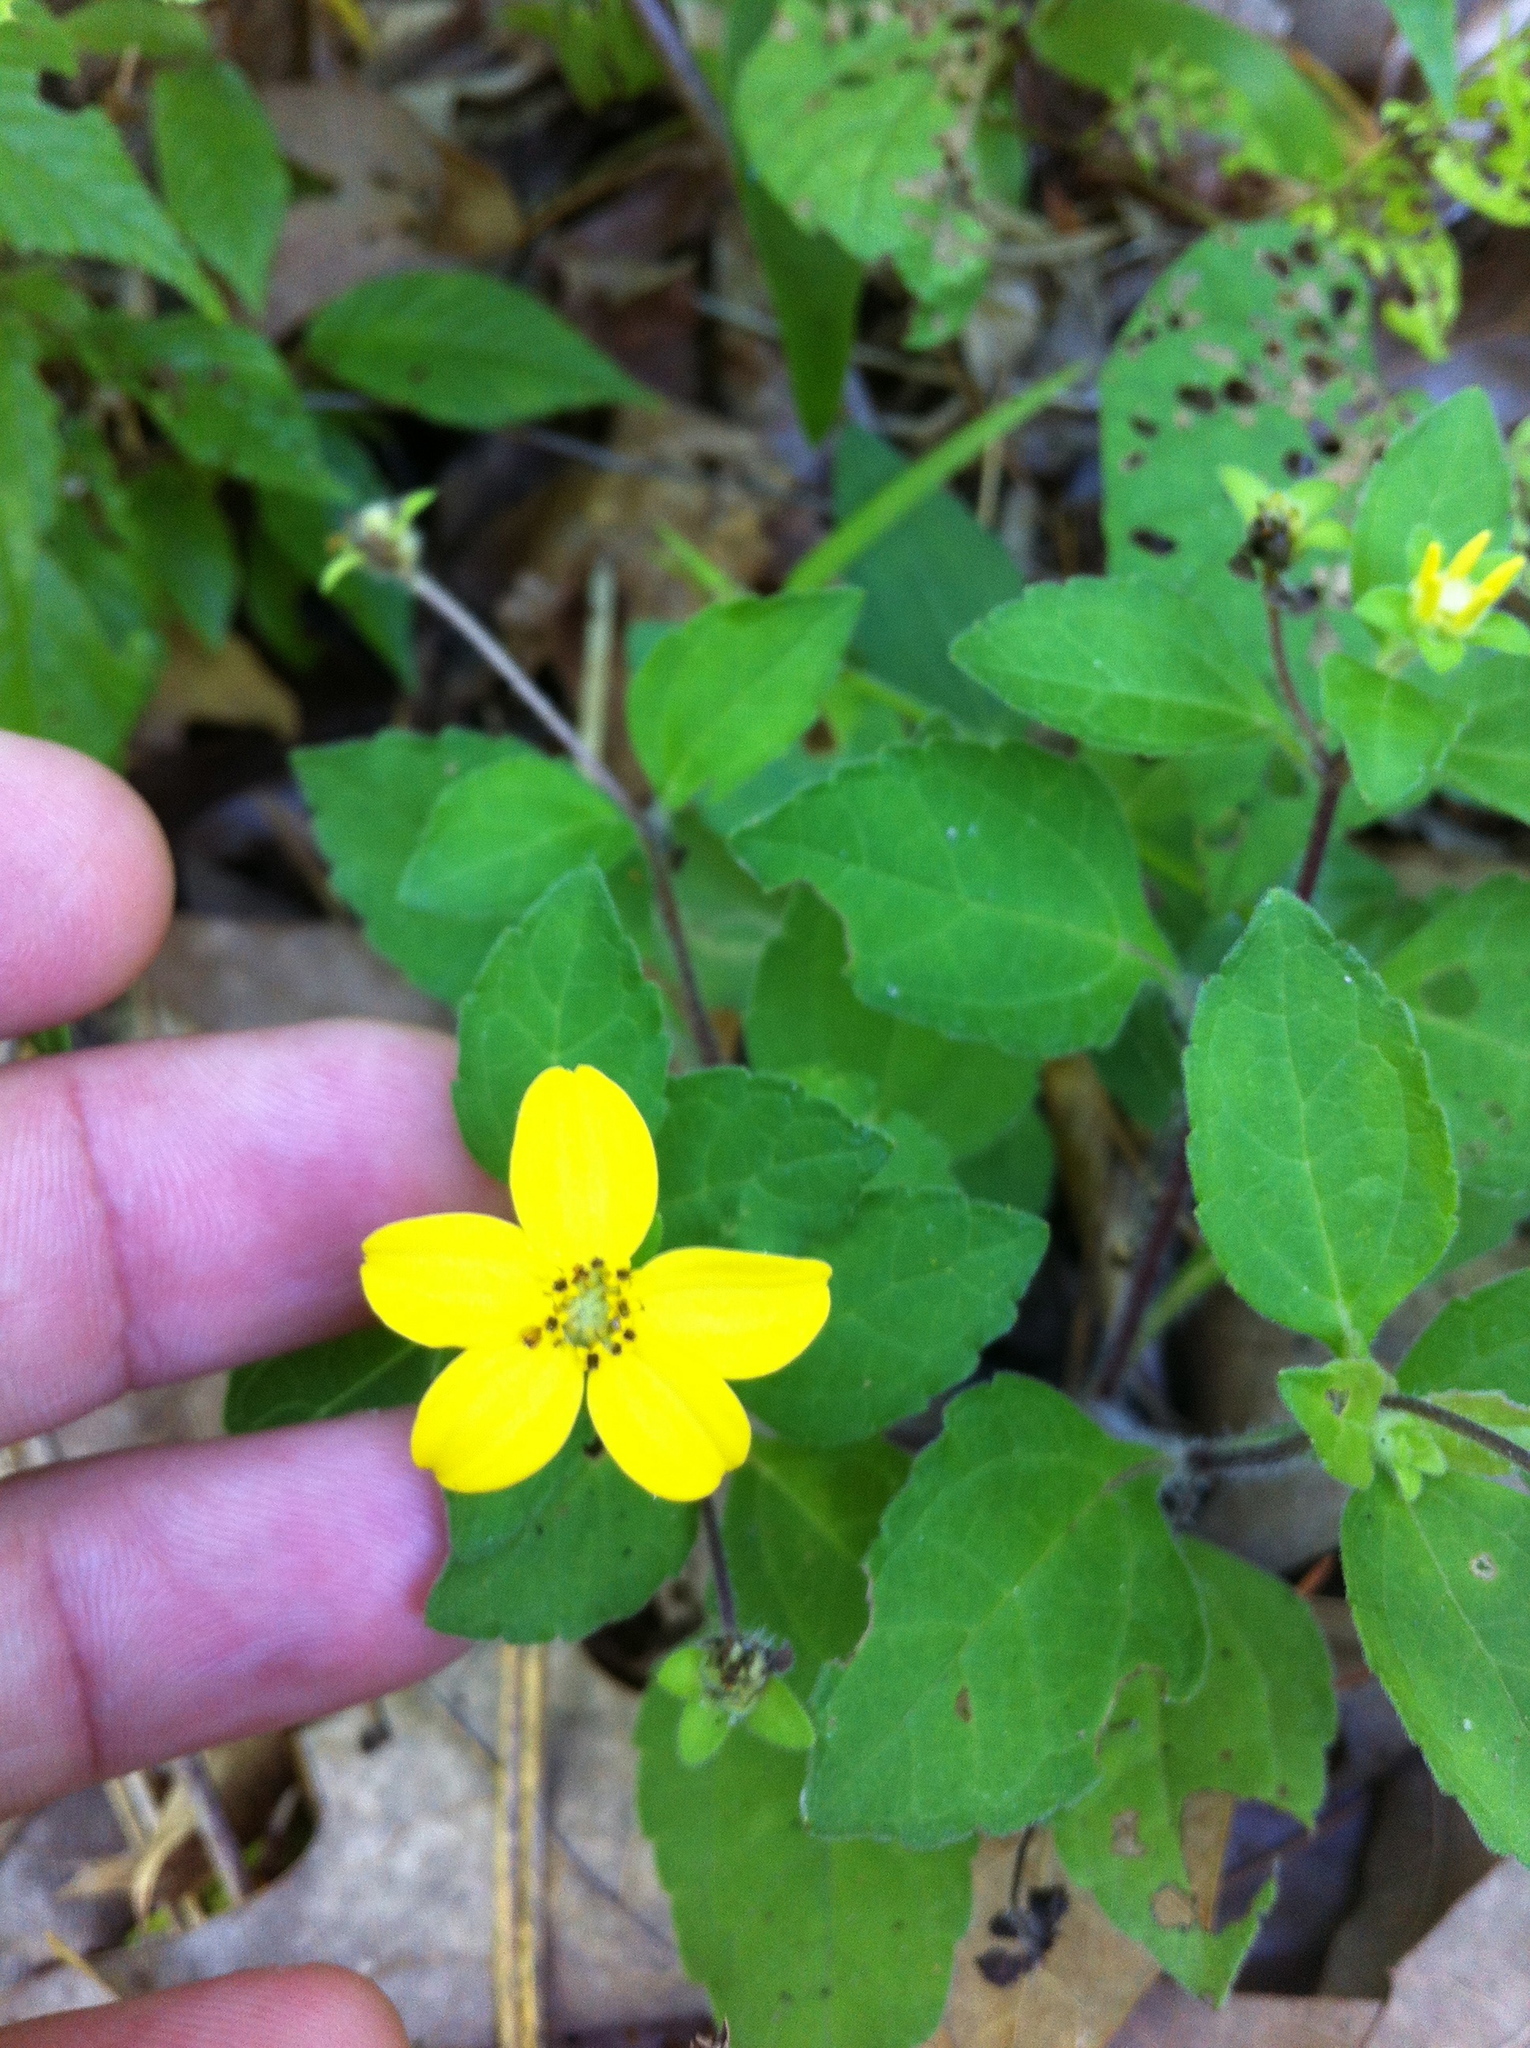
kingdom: Plantae
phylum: Tracheophyta
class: Magnoliopsida
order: Asterales
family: Asteraceae
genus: Chrysogonum
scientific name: Chrysogonum virginianum
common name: Golden-knee
